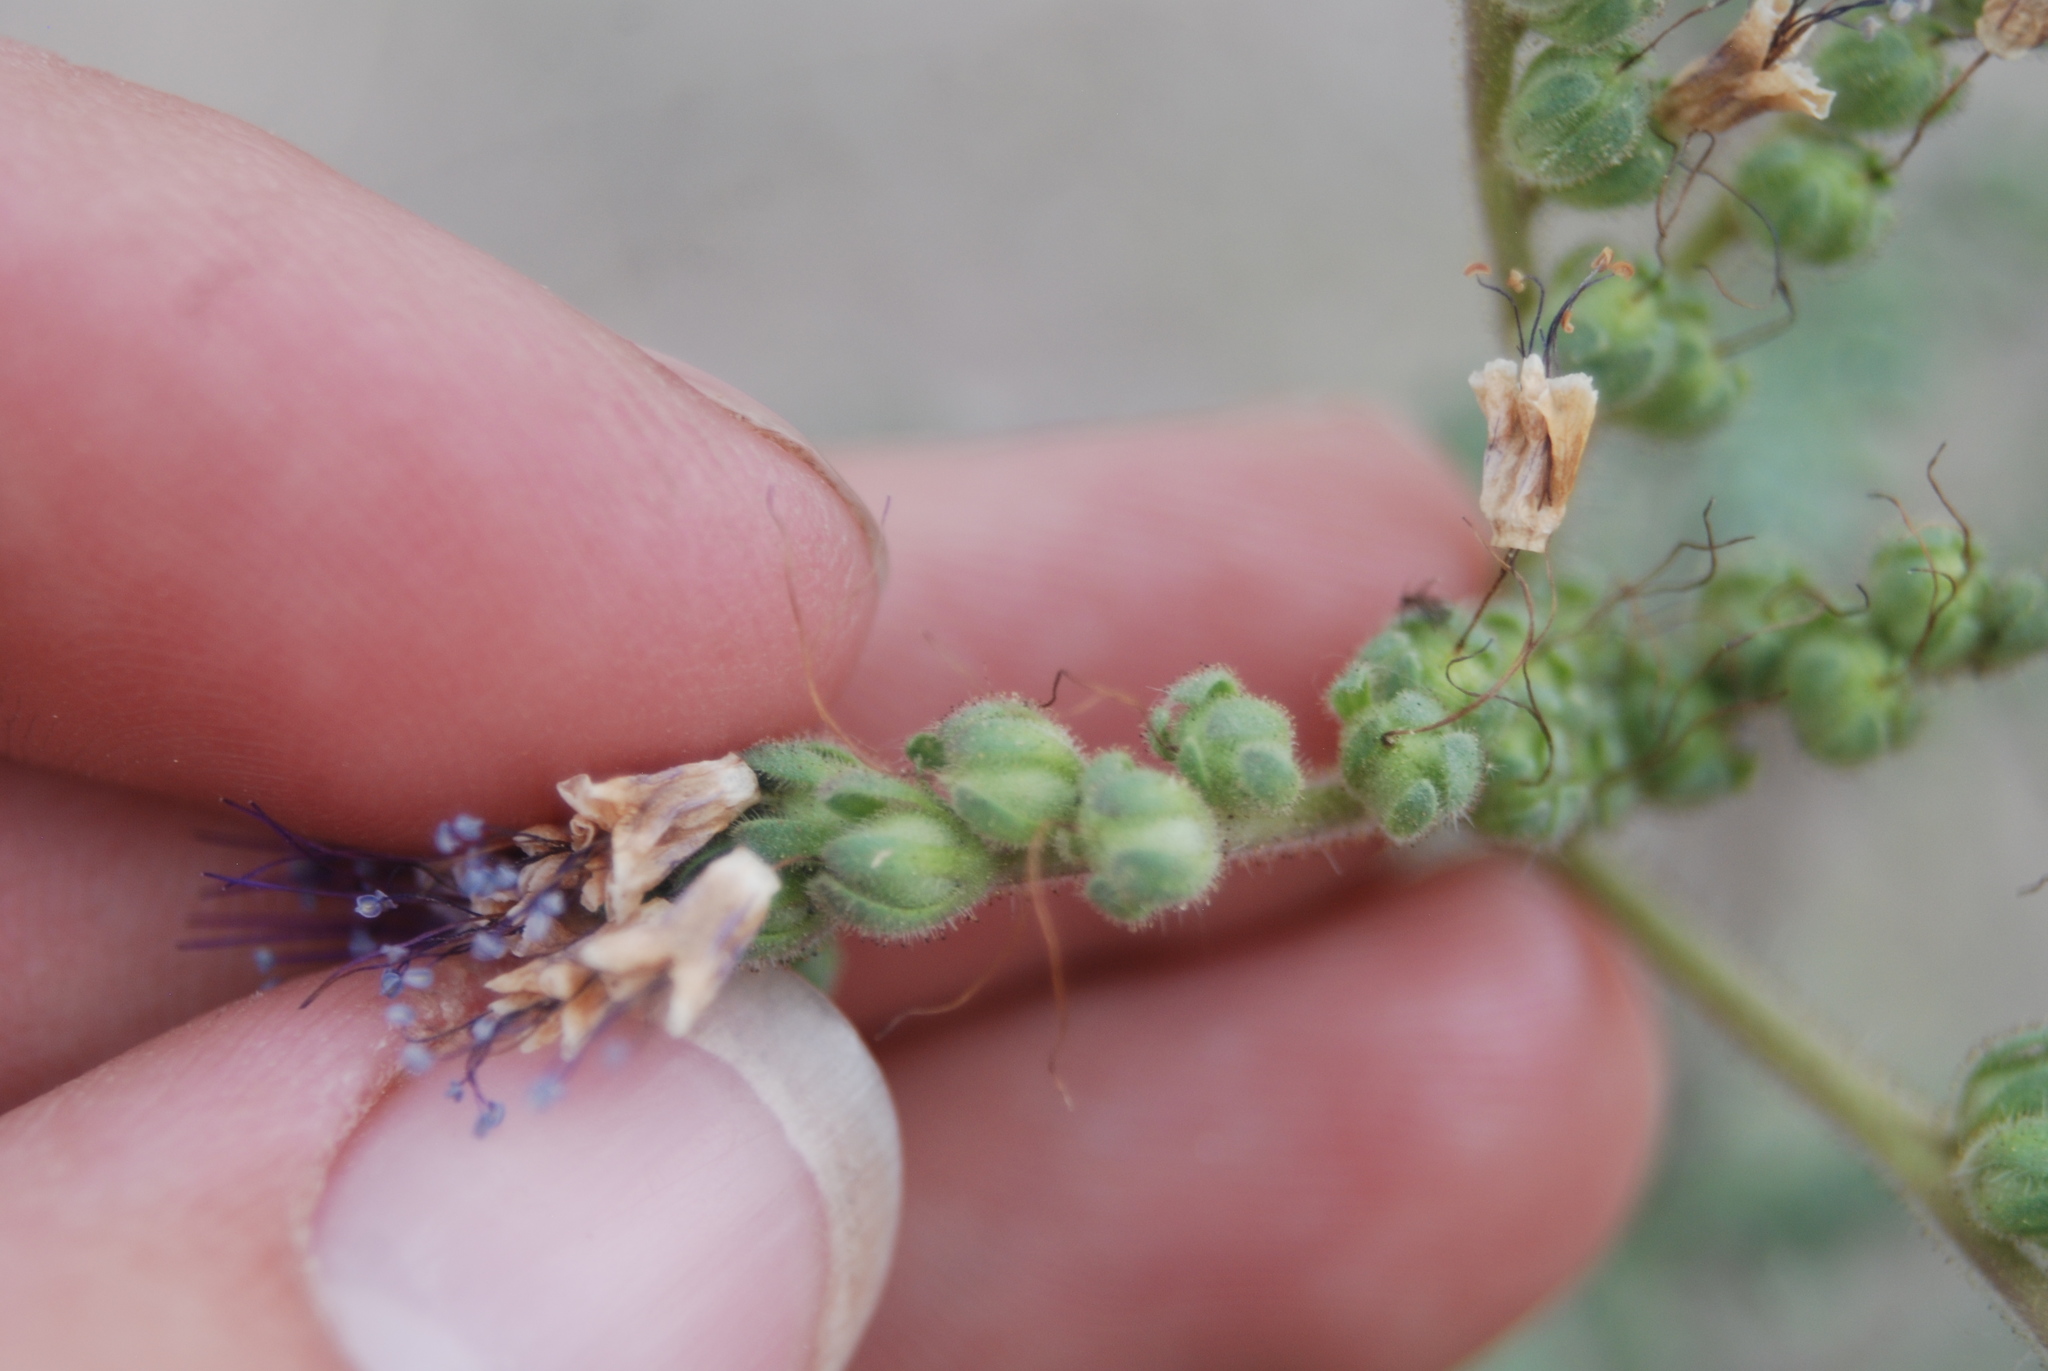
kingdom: Plantae
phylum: Tracheophyta
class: Magnoliopsida
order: Boraginales
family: Hydrophyllaceae
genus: Phacelia
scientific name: Phacelia alba
